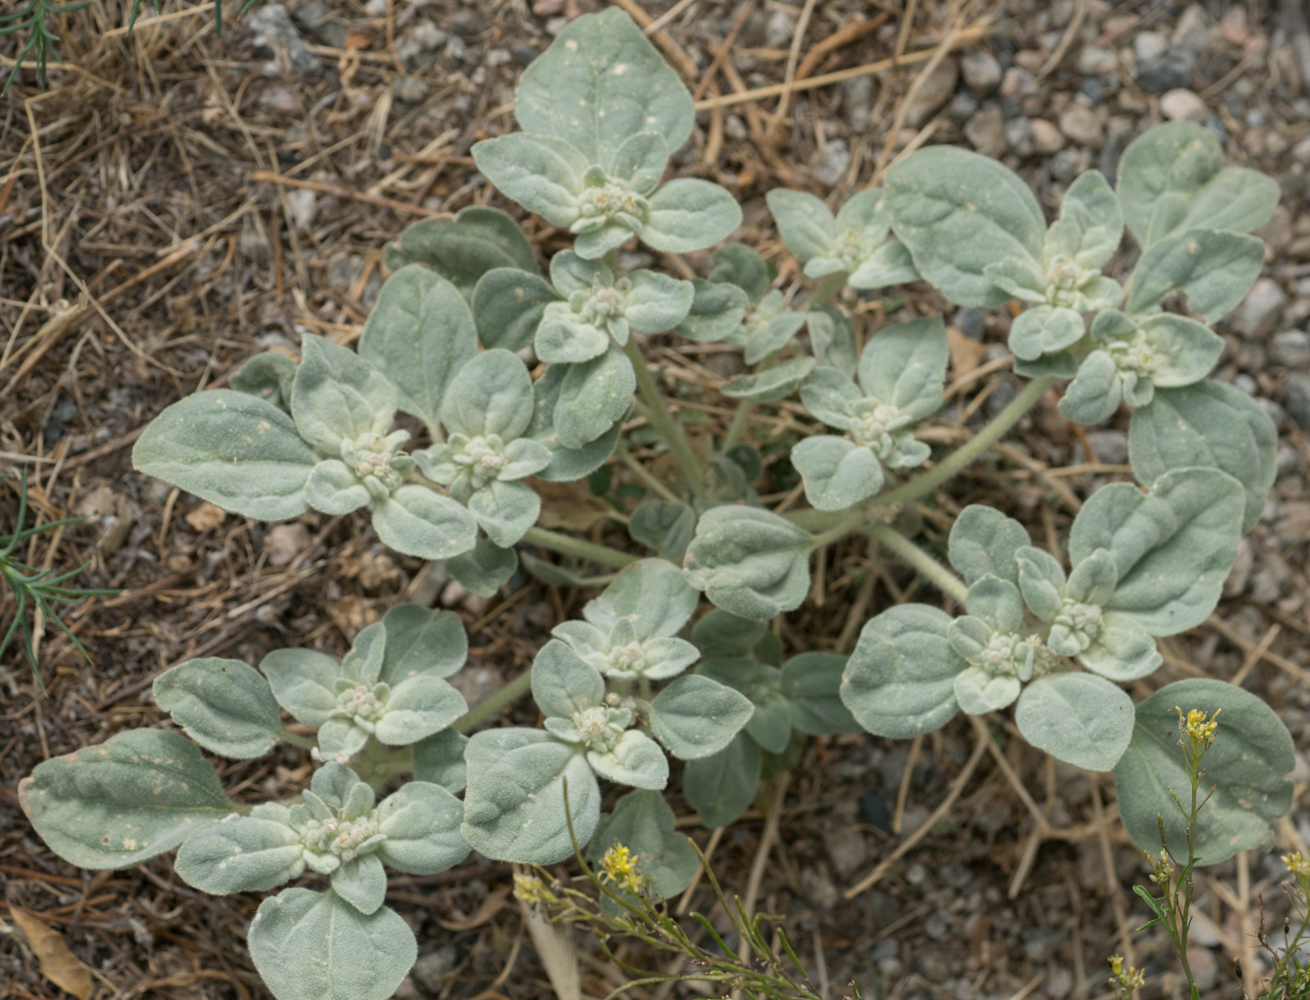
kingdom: Plantae
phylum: Tracheophyta
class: Magnoliopsida
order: Malpighiales
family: Euphorbiaceae
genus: Croton
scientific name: Croton setiger
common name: Dove weed
